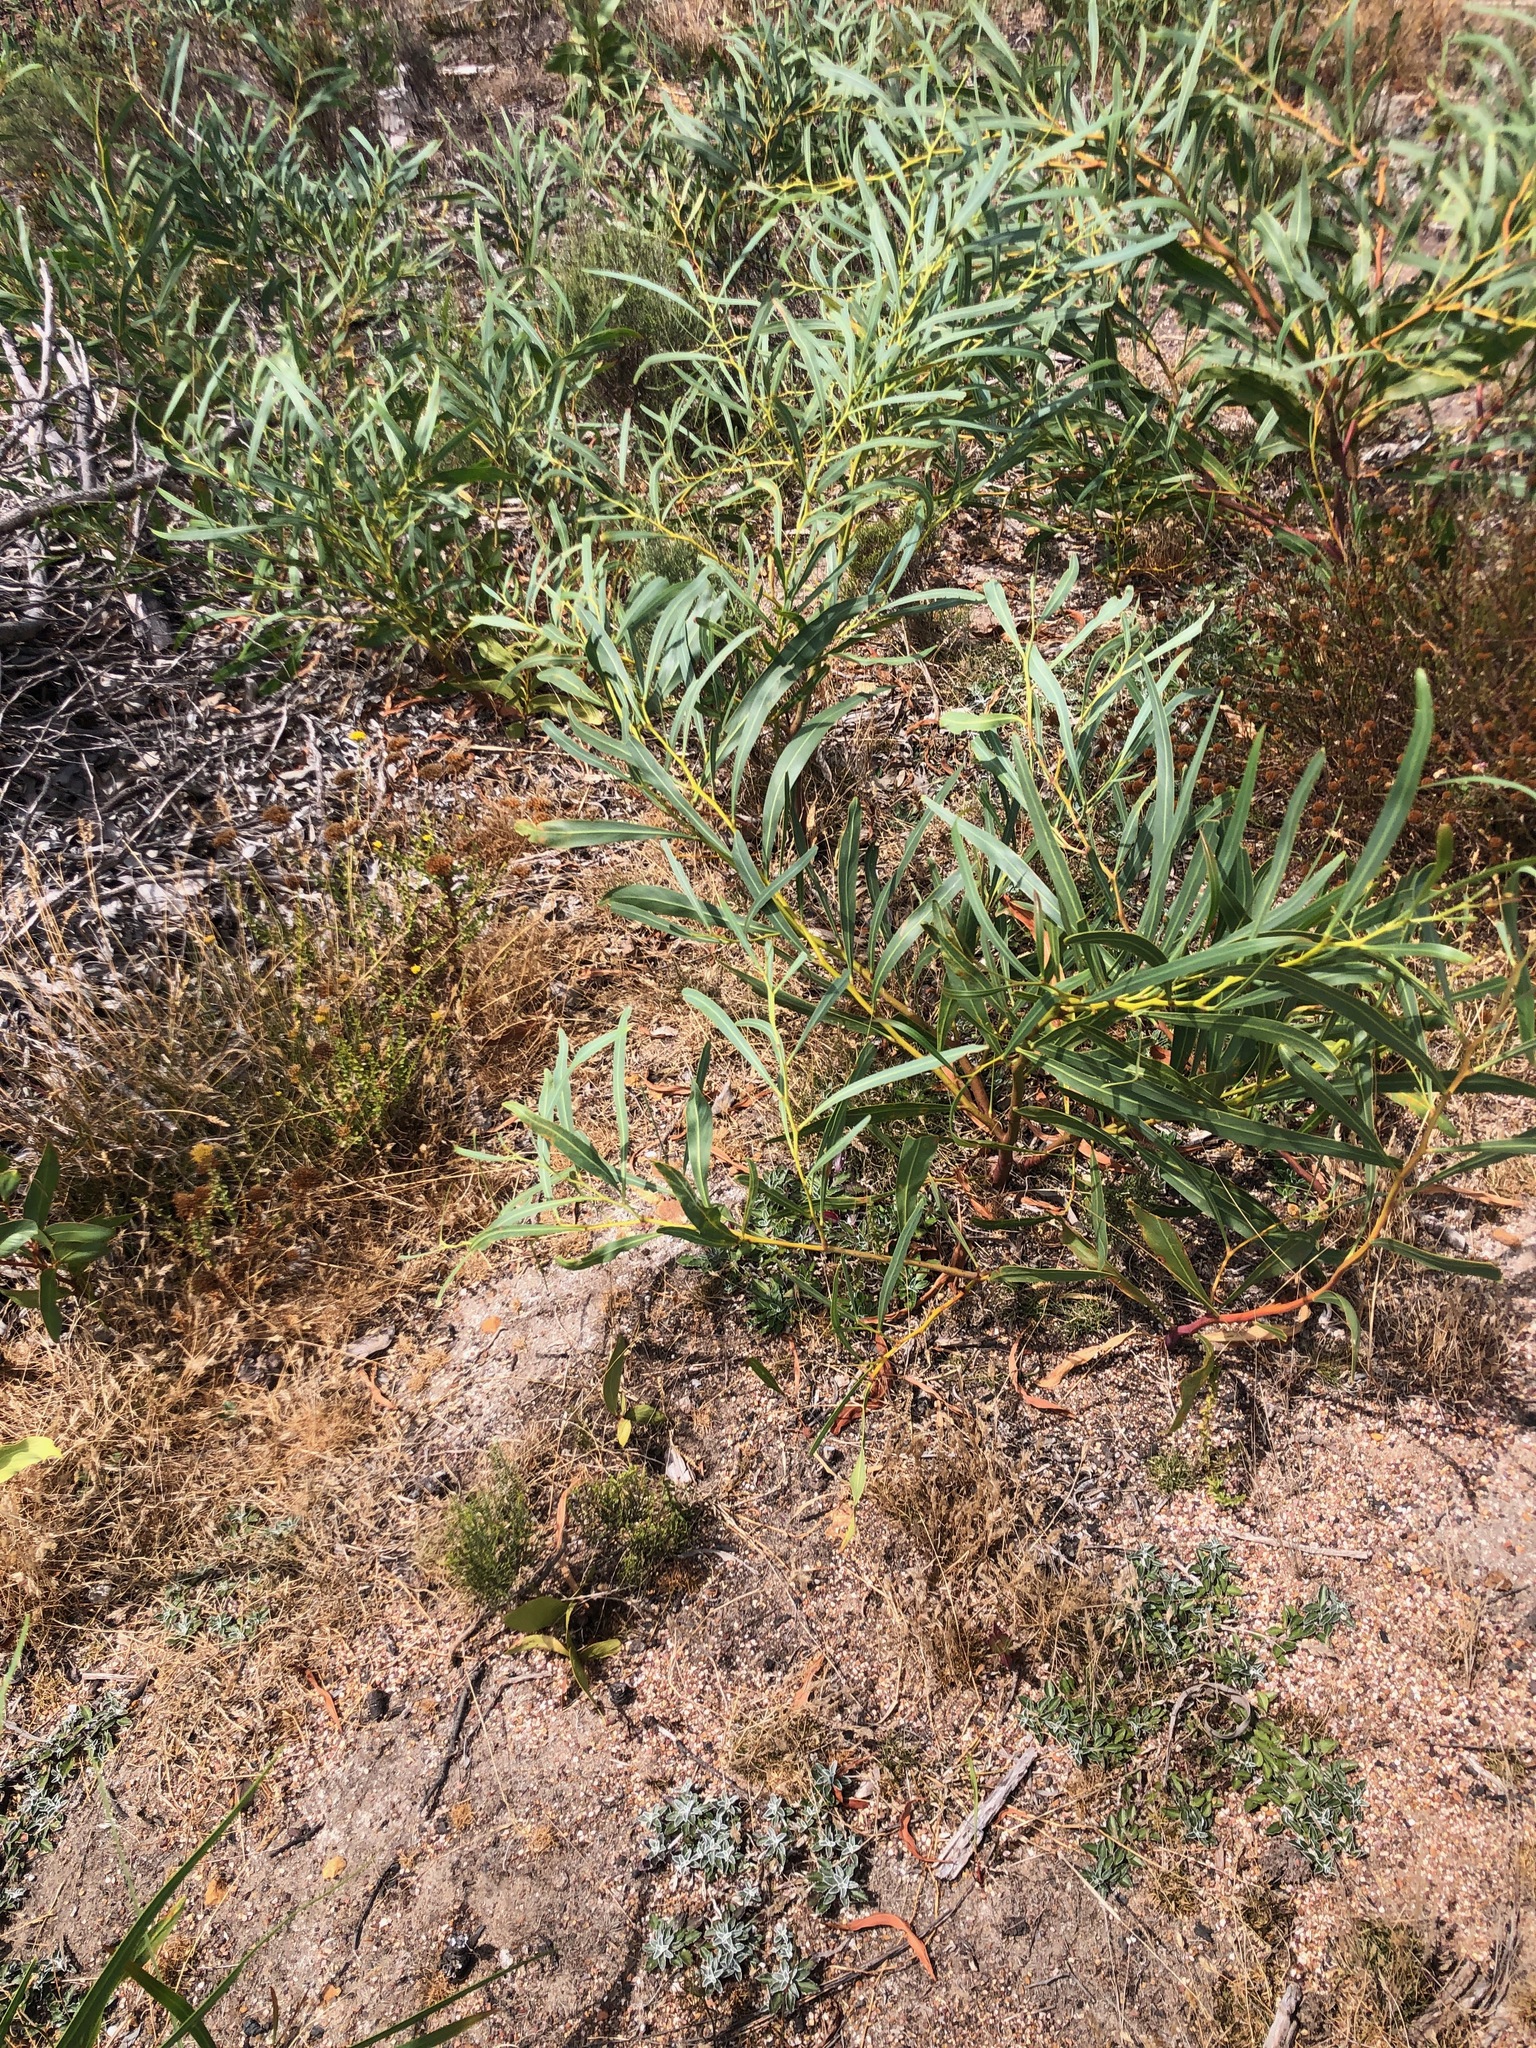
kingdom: Plantae
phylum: Tracheophyta
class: Magnoliopsida
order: Fabales
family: Fabaceae
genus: Acacia
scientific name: Acacia saligna
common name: Orange wattle
